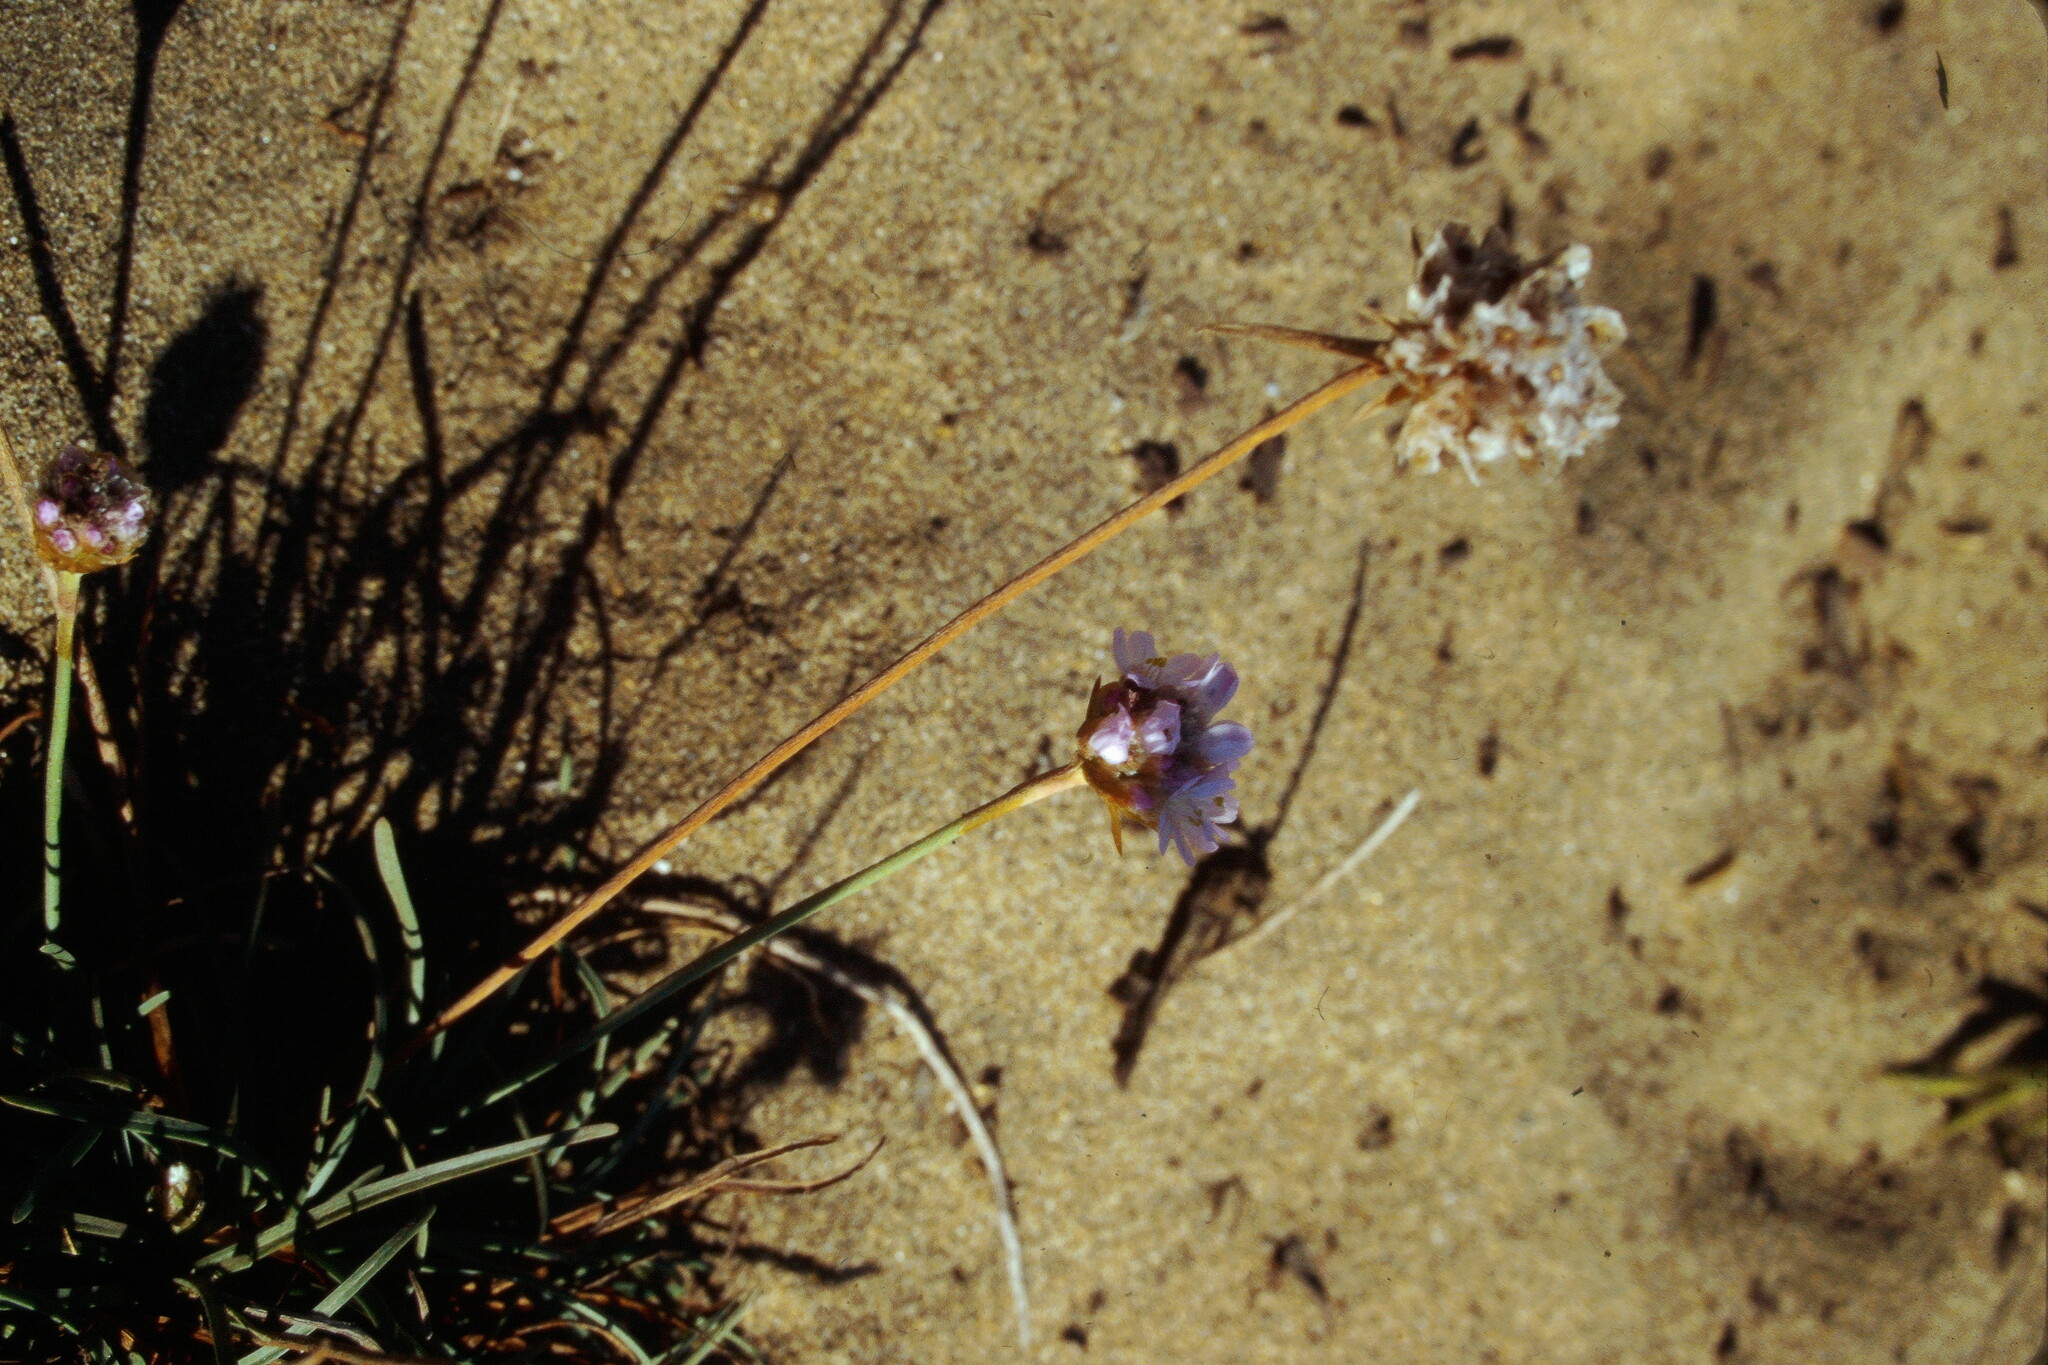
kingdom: Plantae
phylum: Tracheophyta
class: Magnoliopsida
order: Caryophyllales
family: Plumbaginaceae
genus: Armeria
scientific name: Armeria maritima
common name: Thrift
